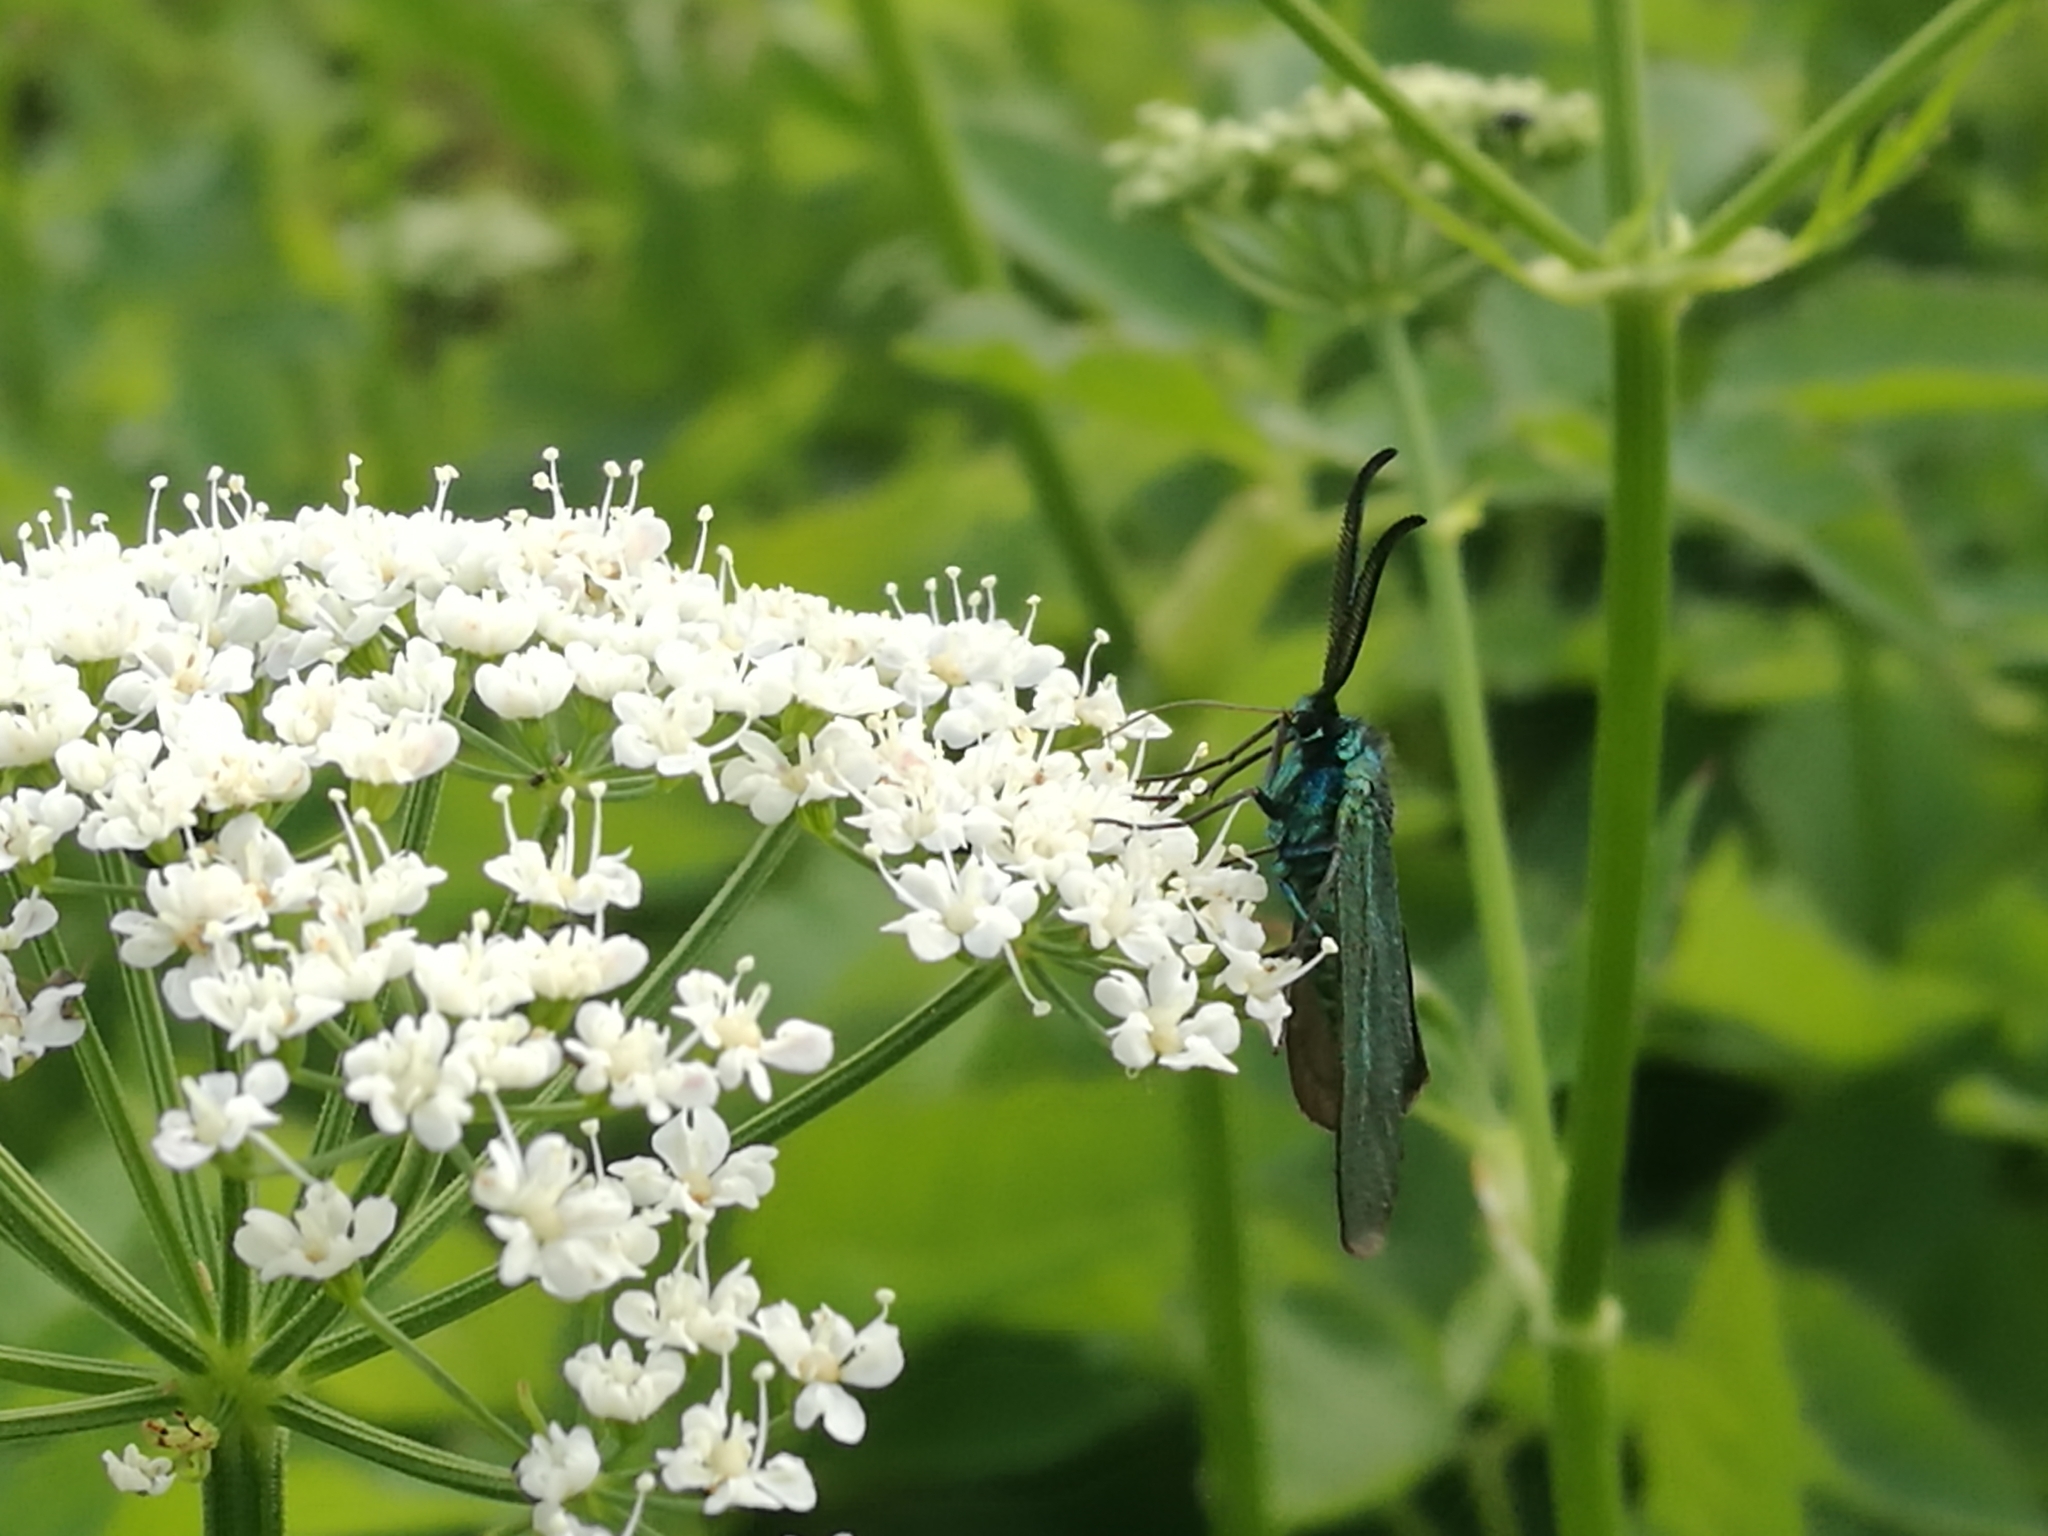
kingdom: Animalia
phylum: Arthropoda
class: Insecta
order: Lepidoptera
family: Zygaenidae
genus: Adscita
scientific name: Adscita statices
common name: Forester
